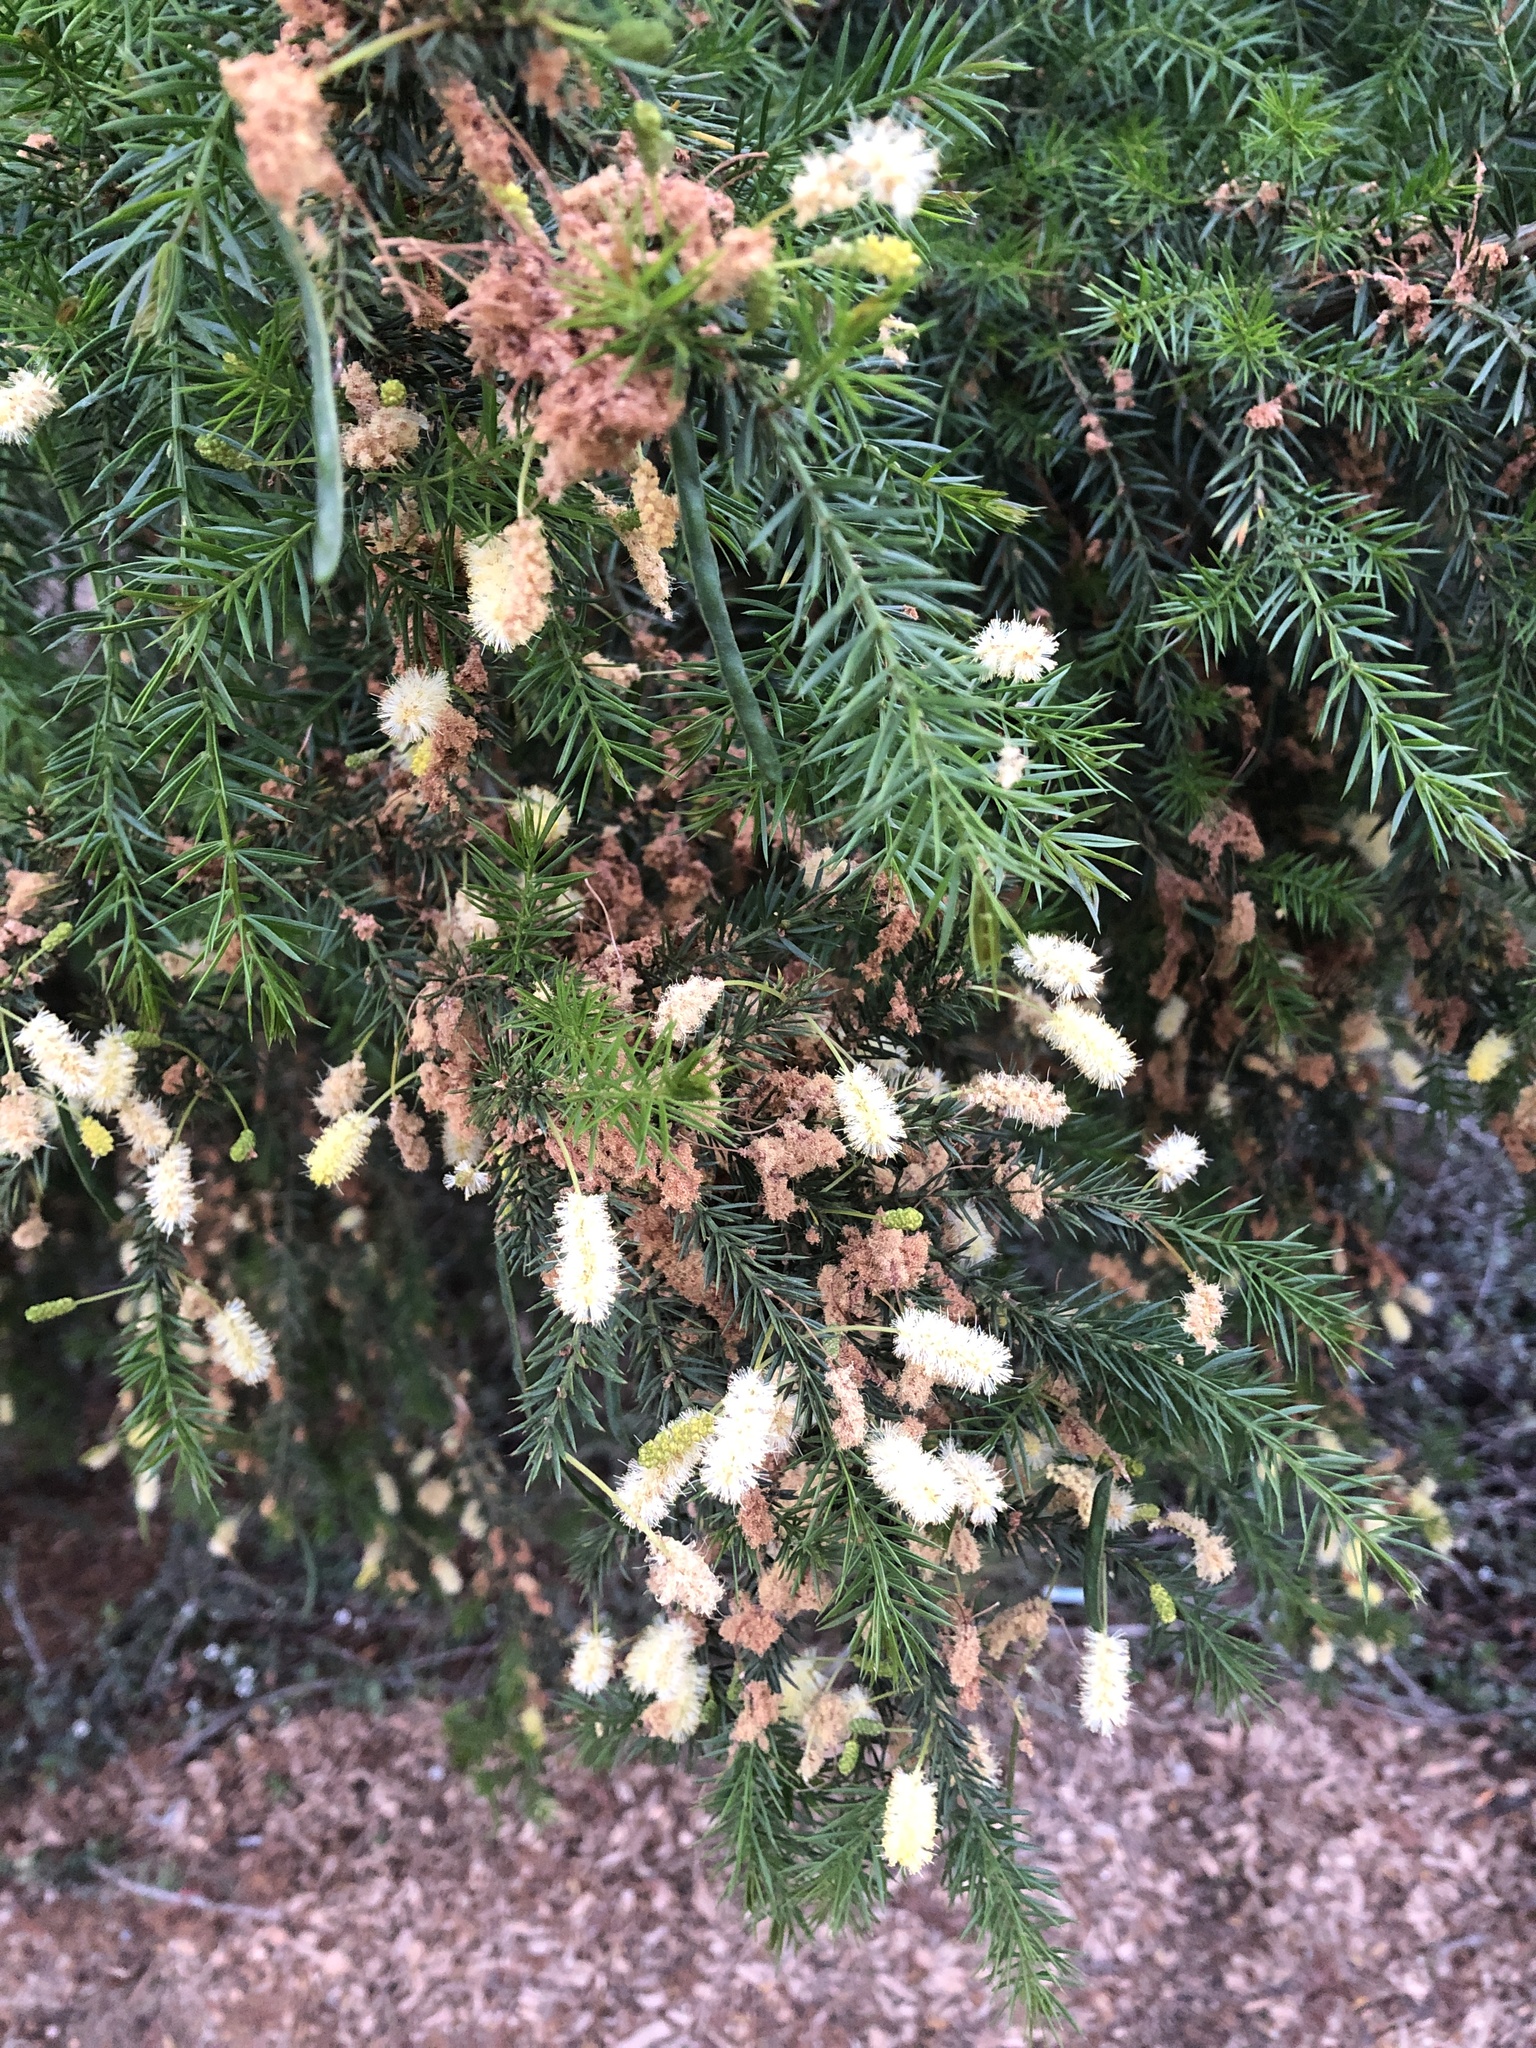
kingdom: Plantae
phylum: Tracheophyta
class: Magnoliopsida
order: Fabales
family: Fabaceae
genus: Acacia
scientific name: Acacia verticillata
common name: Prickly moses
